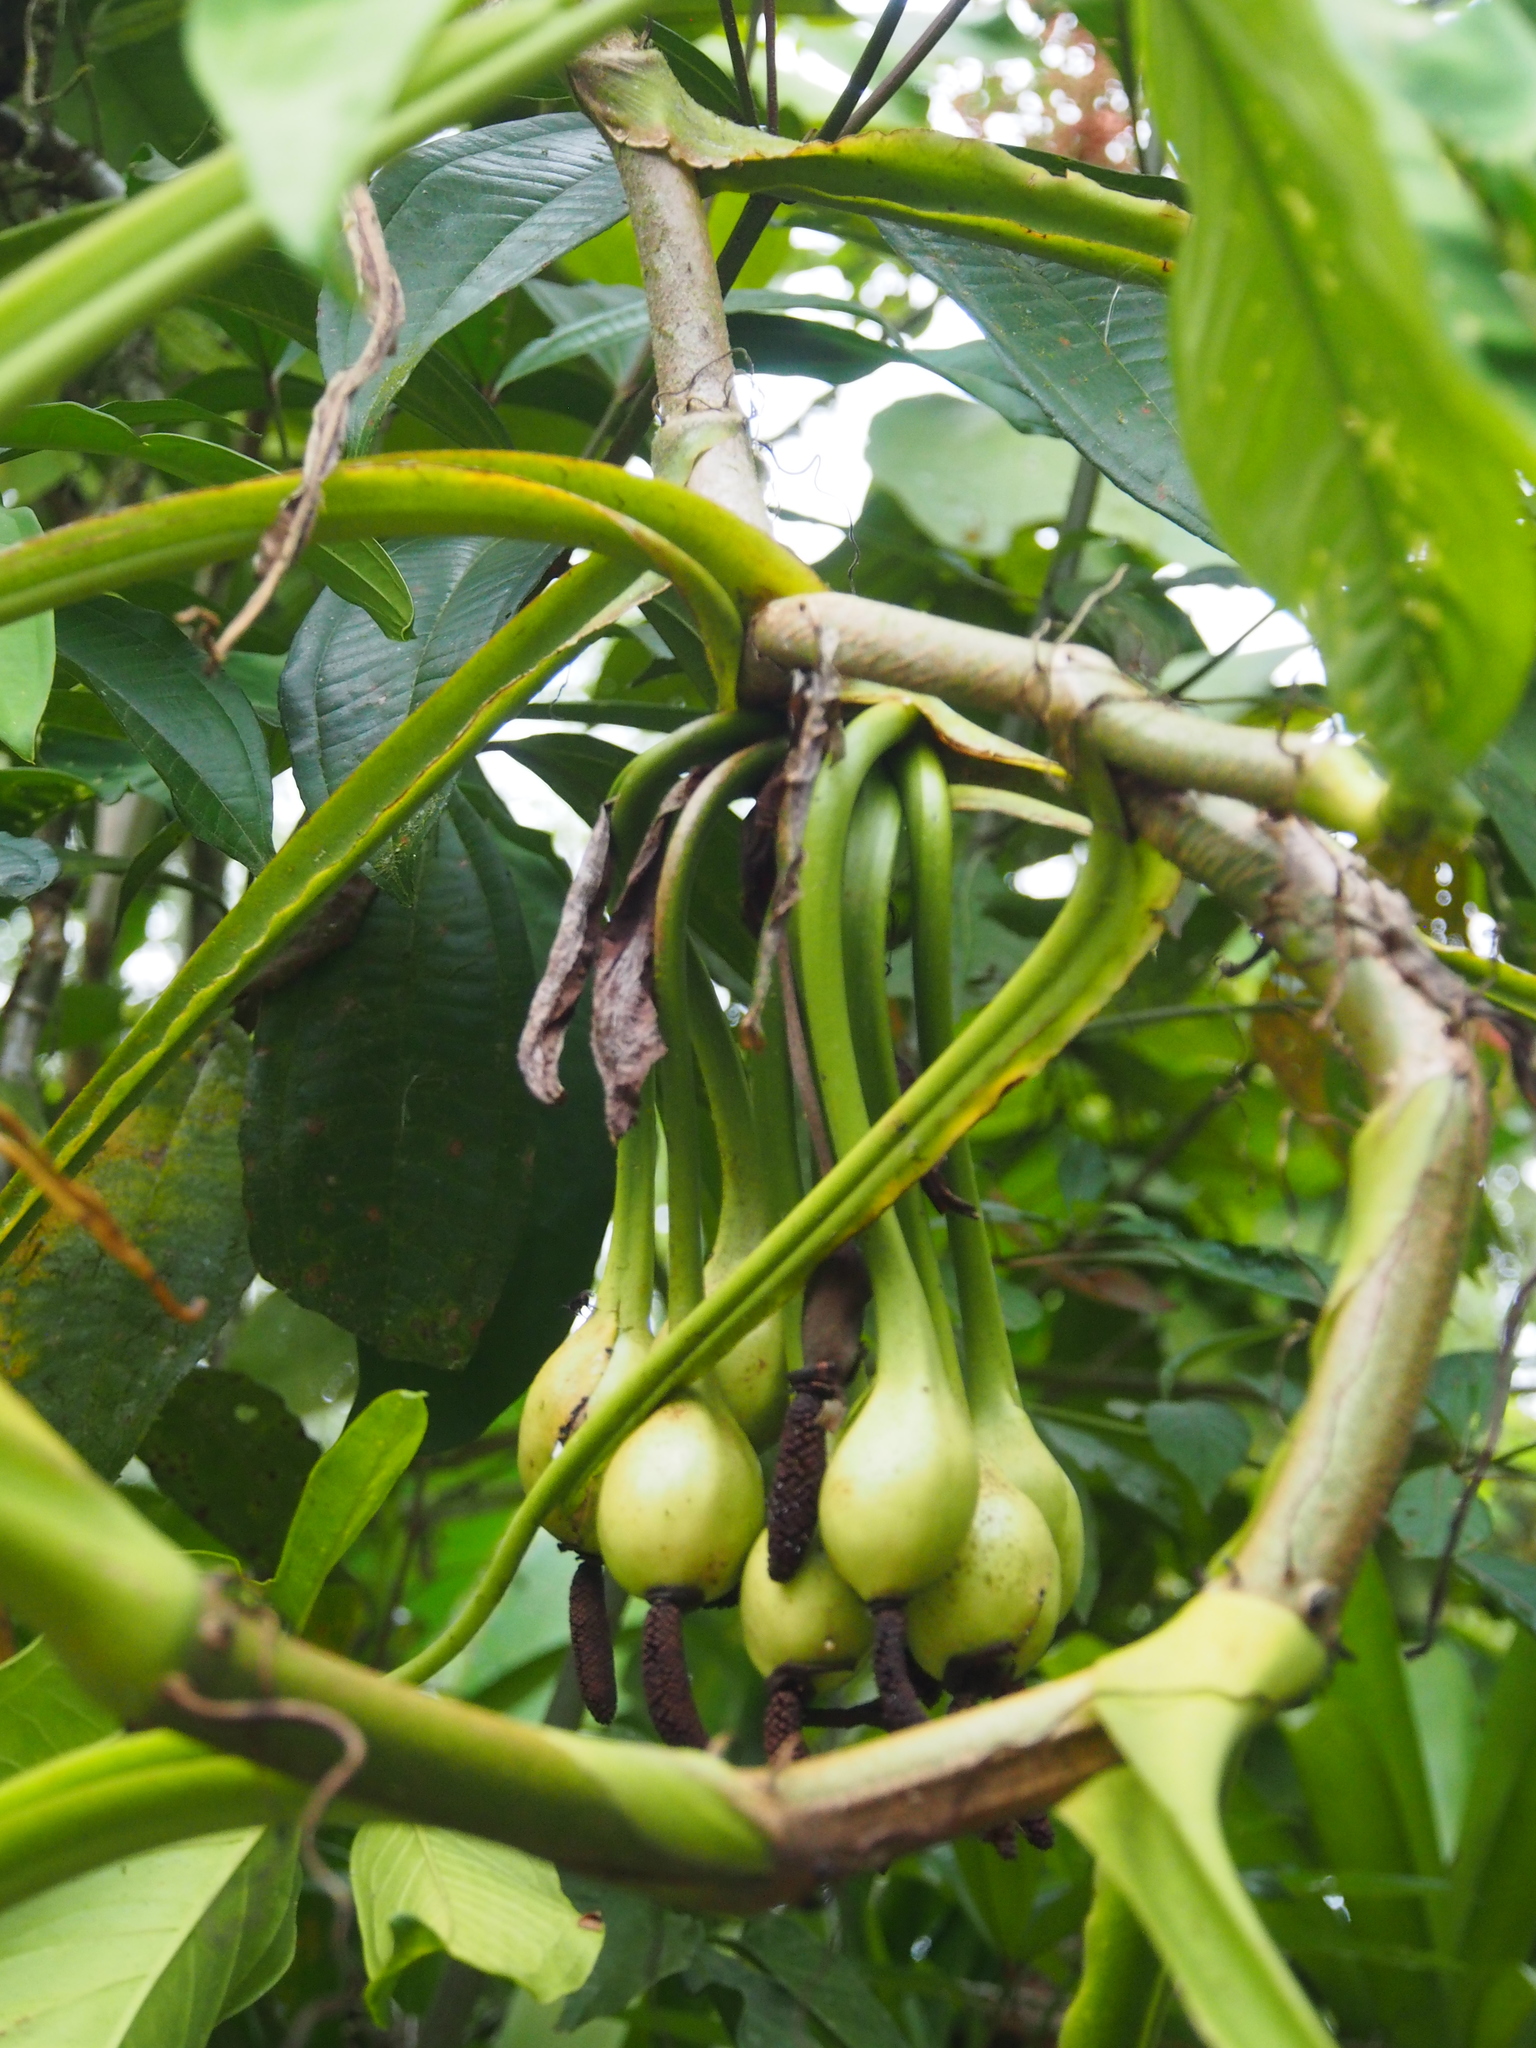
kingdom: Plantae
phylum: Tracheophyta
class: Liliopsida
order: Alismatales
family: Araceae
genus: Syngonium
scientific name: Syngonium podophyllum
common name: American evergreen
